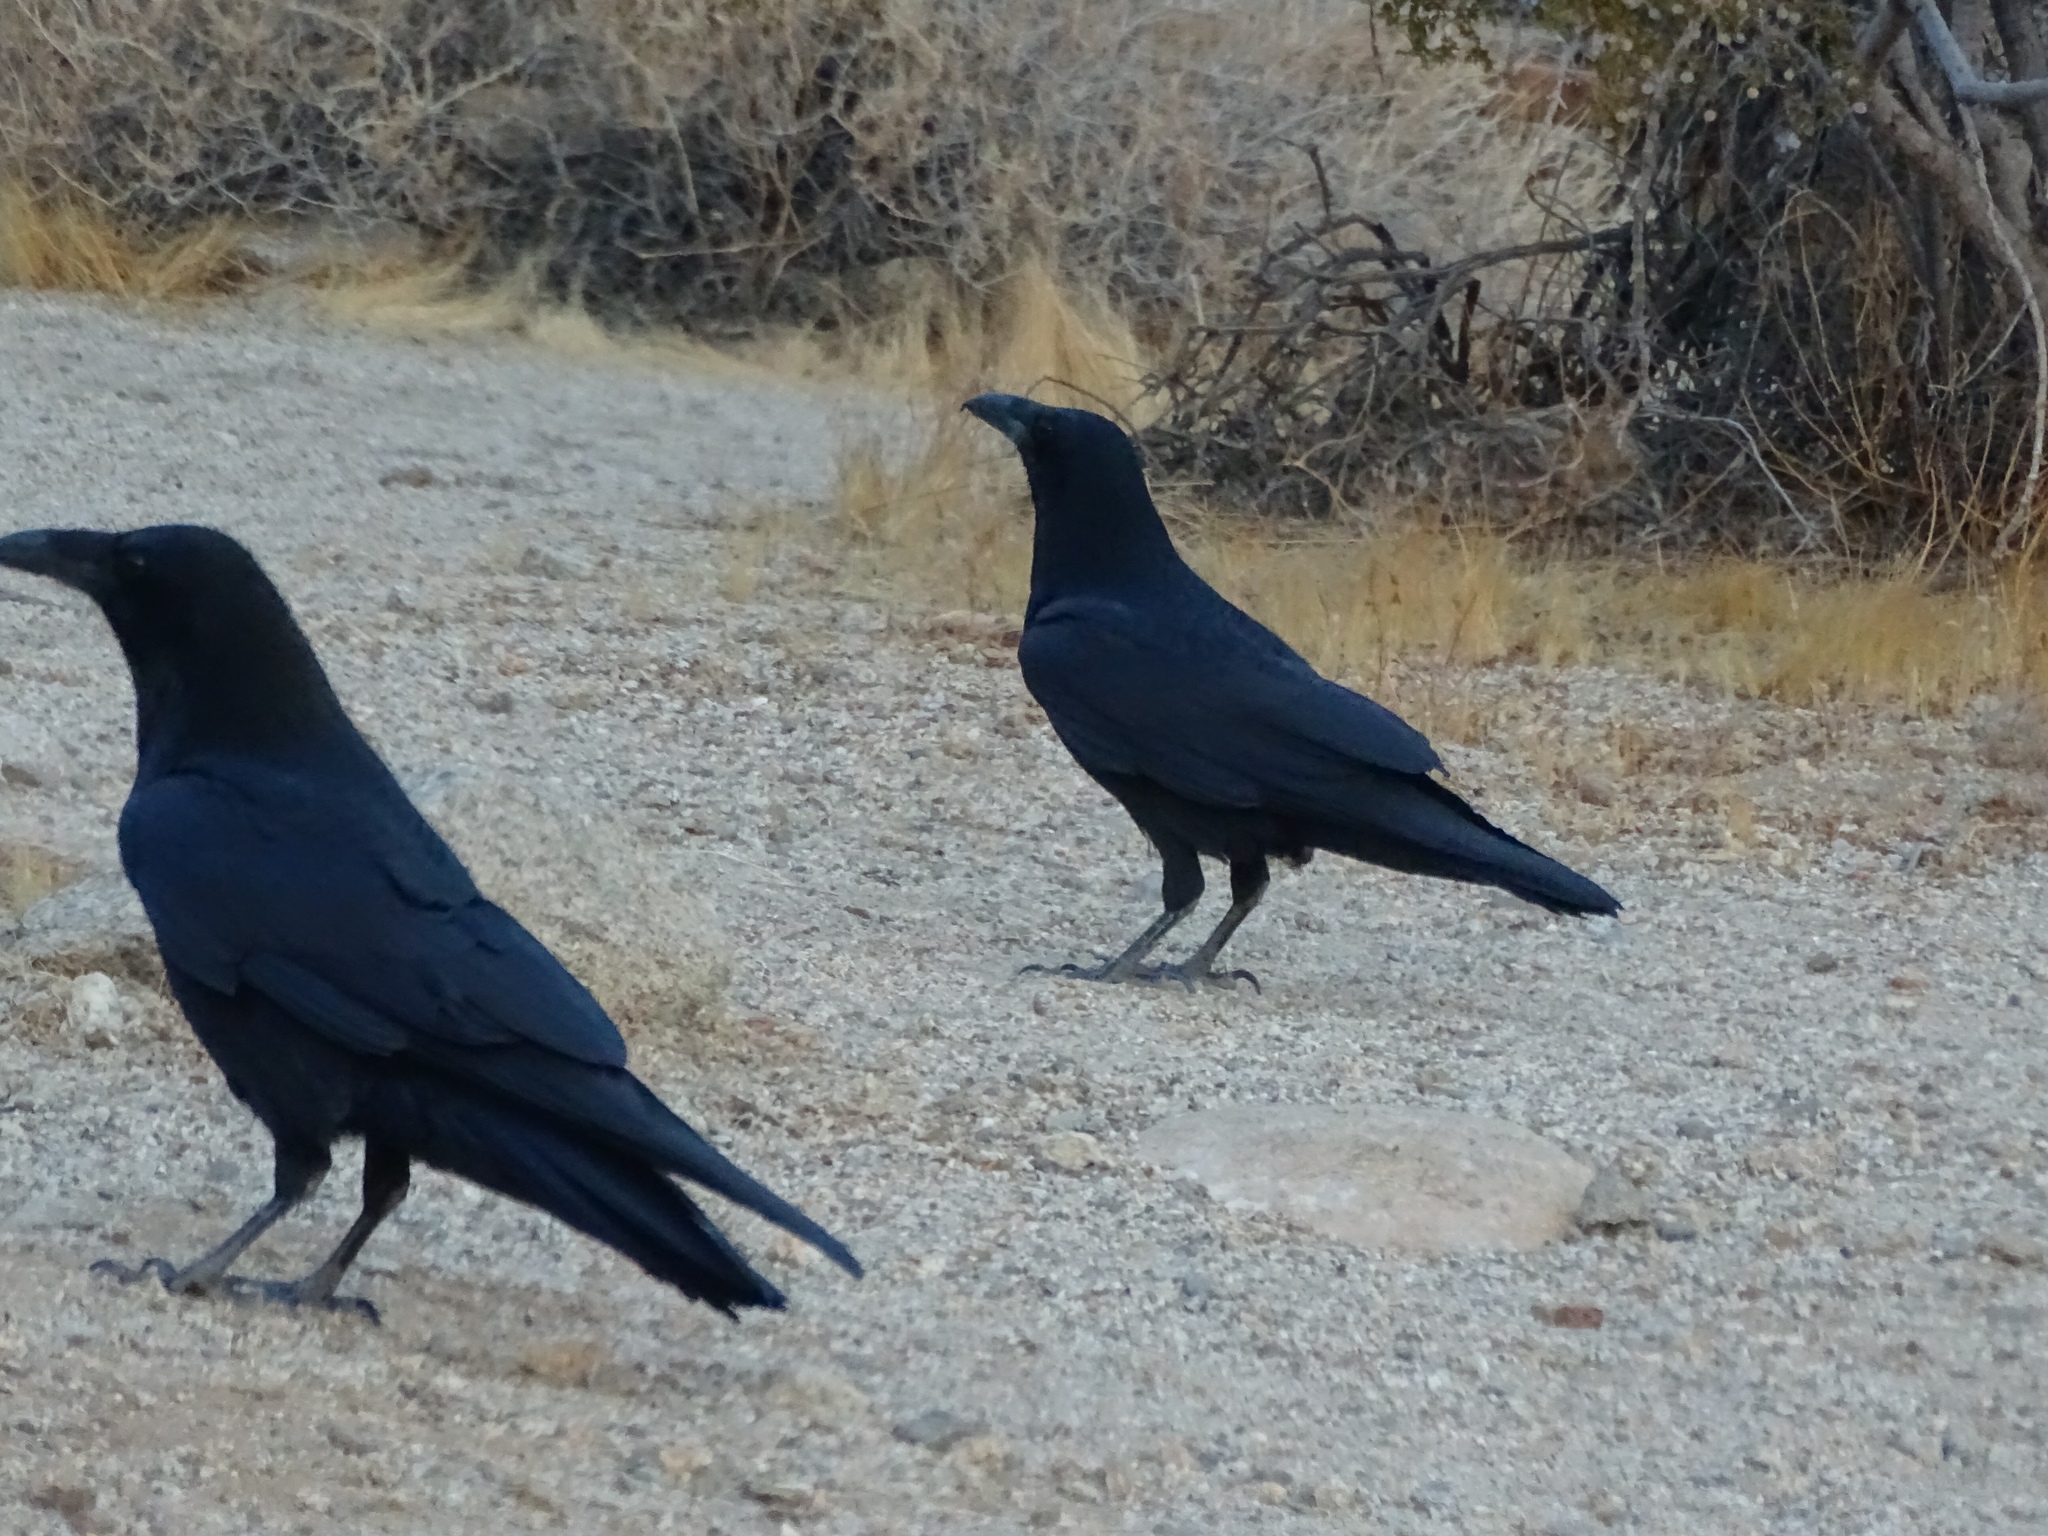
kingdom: Animalia
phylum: Chordata
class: Aves
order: Passeriformes
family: Corvidae
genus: Corvus
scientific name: Corvus corax
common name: Common raven
